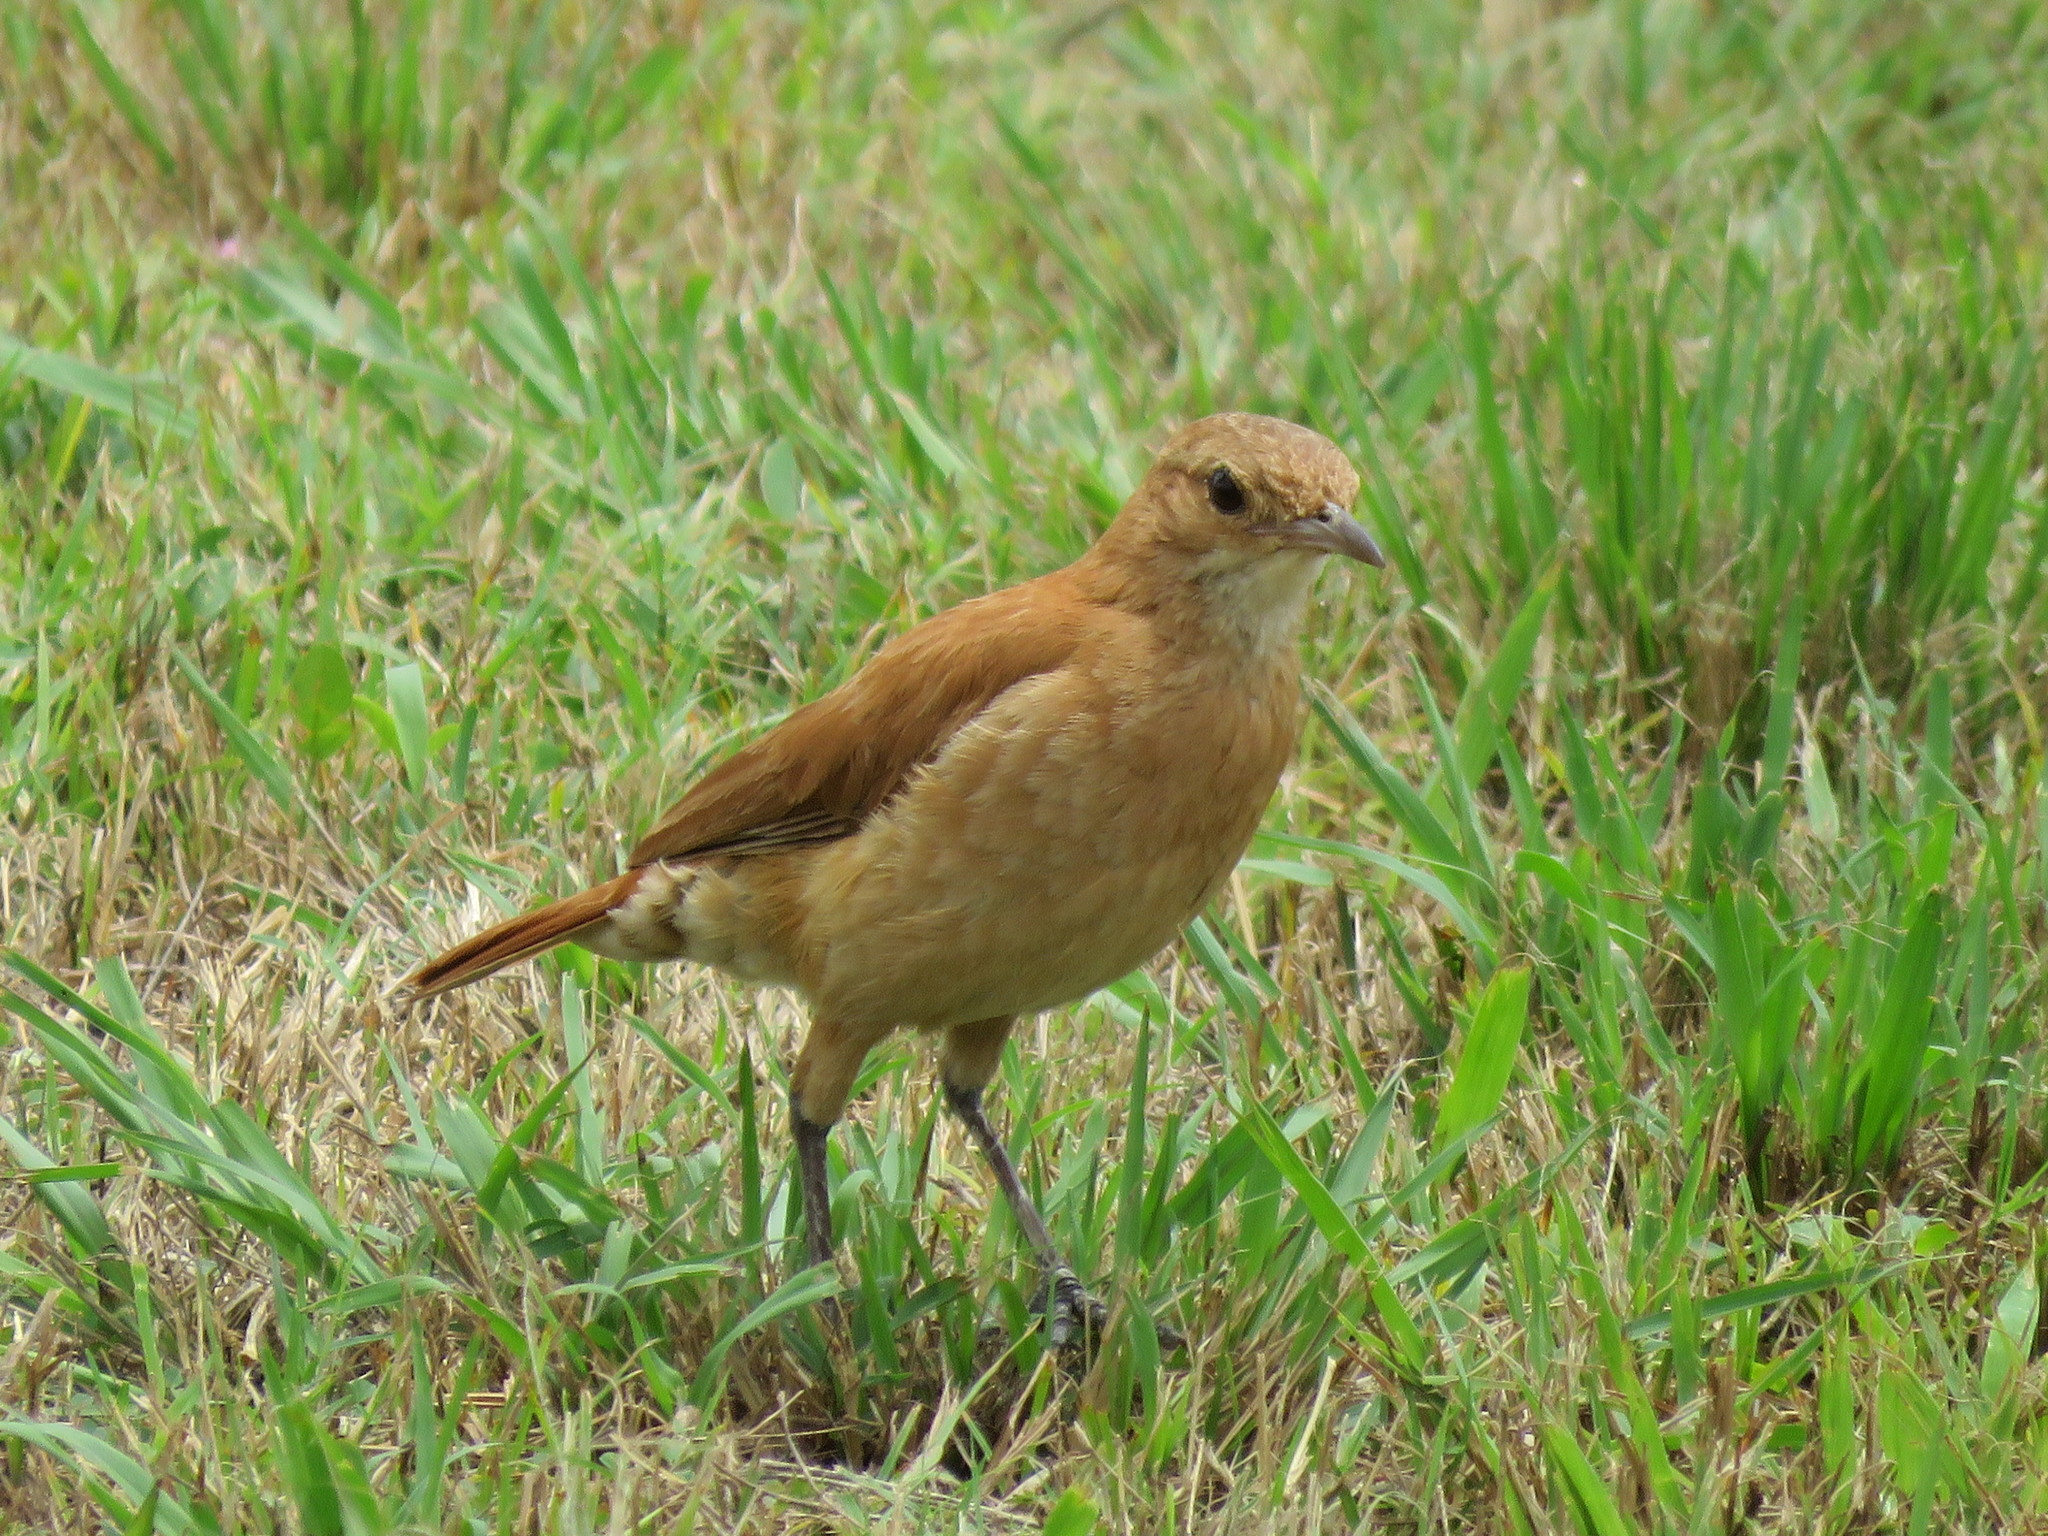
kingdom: Animalia
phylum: Chordata
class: Aves
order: Passeriformes
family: Furnariidae
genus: Furnarius
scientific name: Furnarius rufus
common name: Rufous hornero
